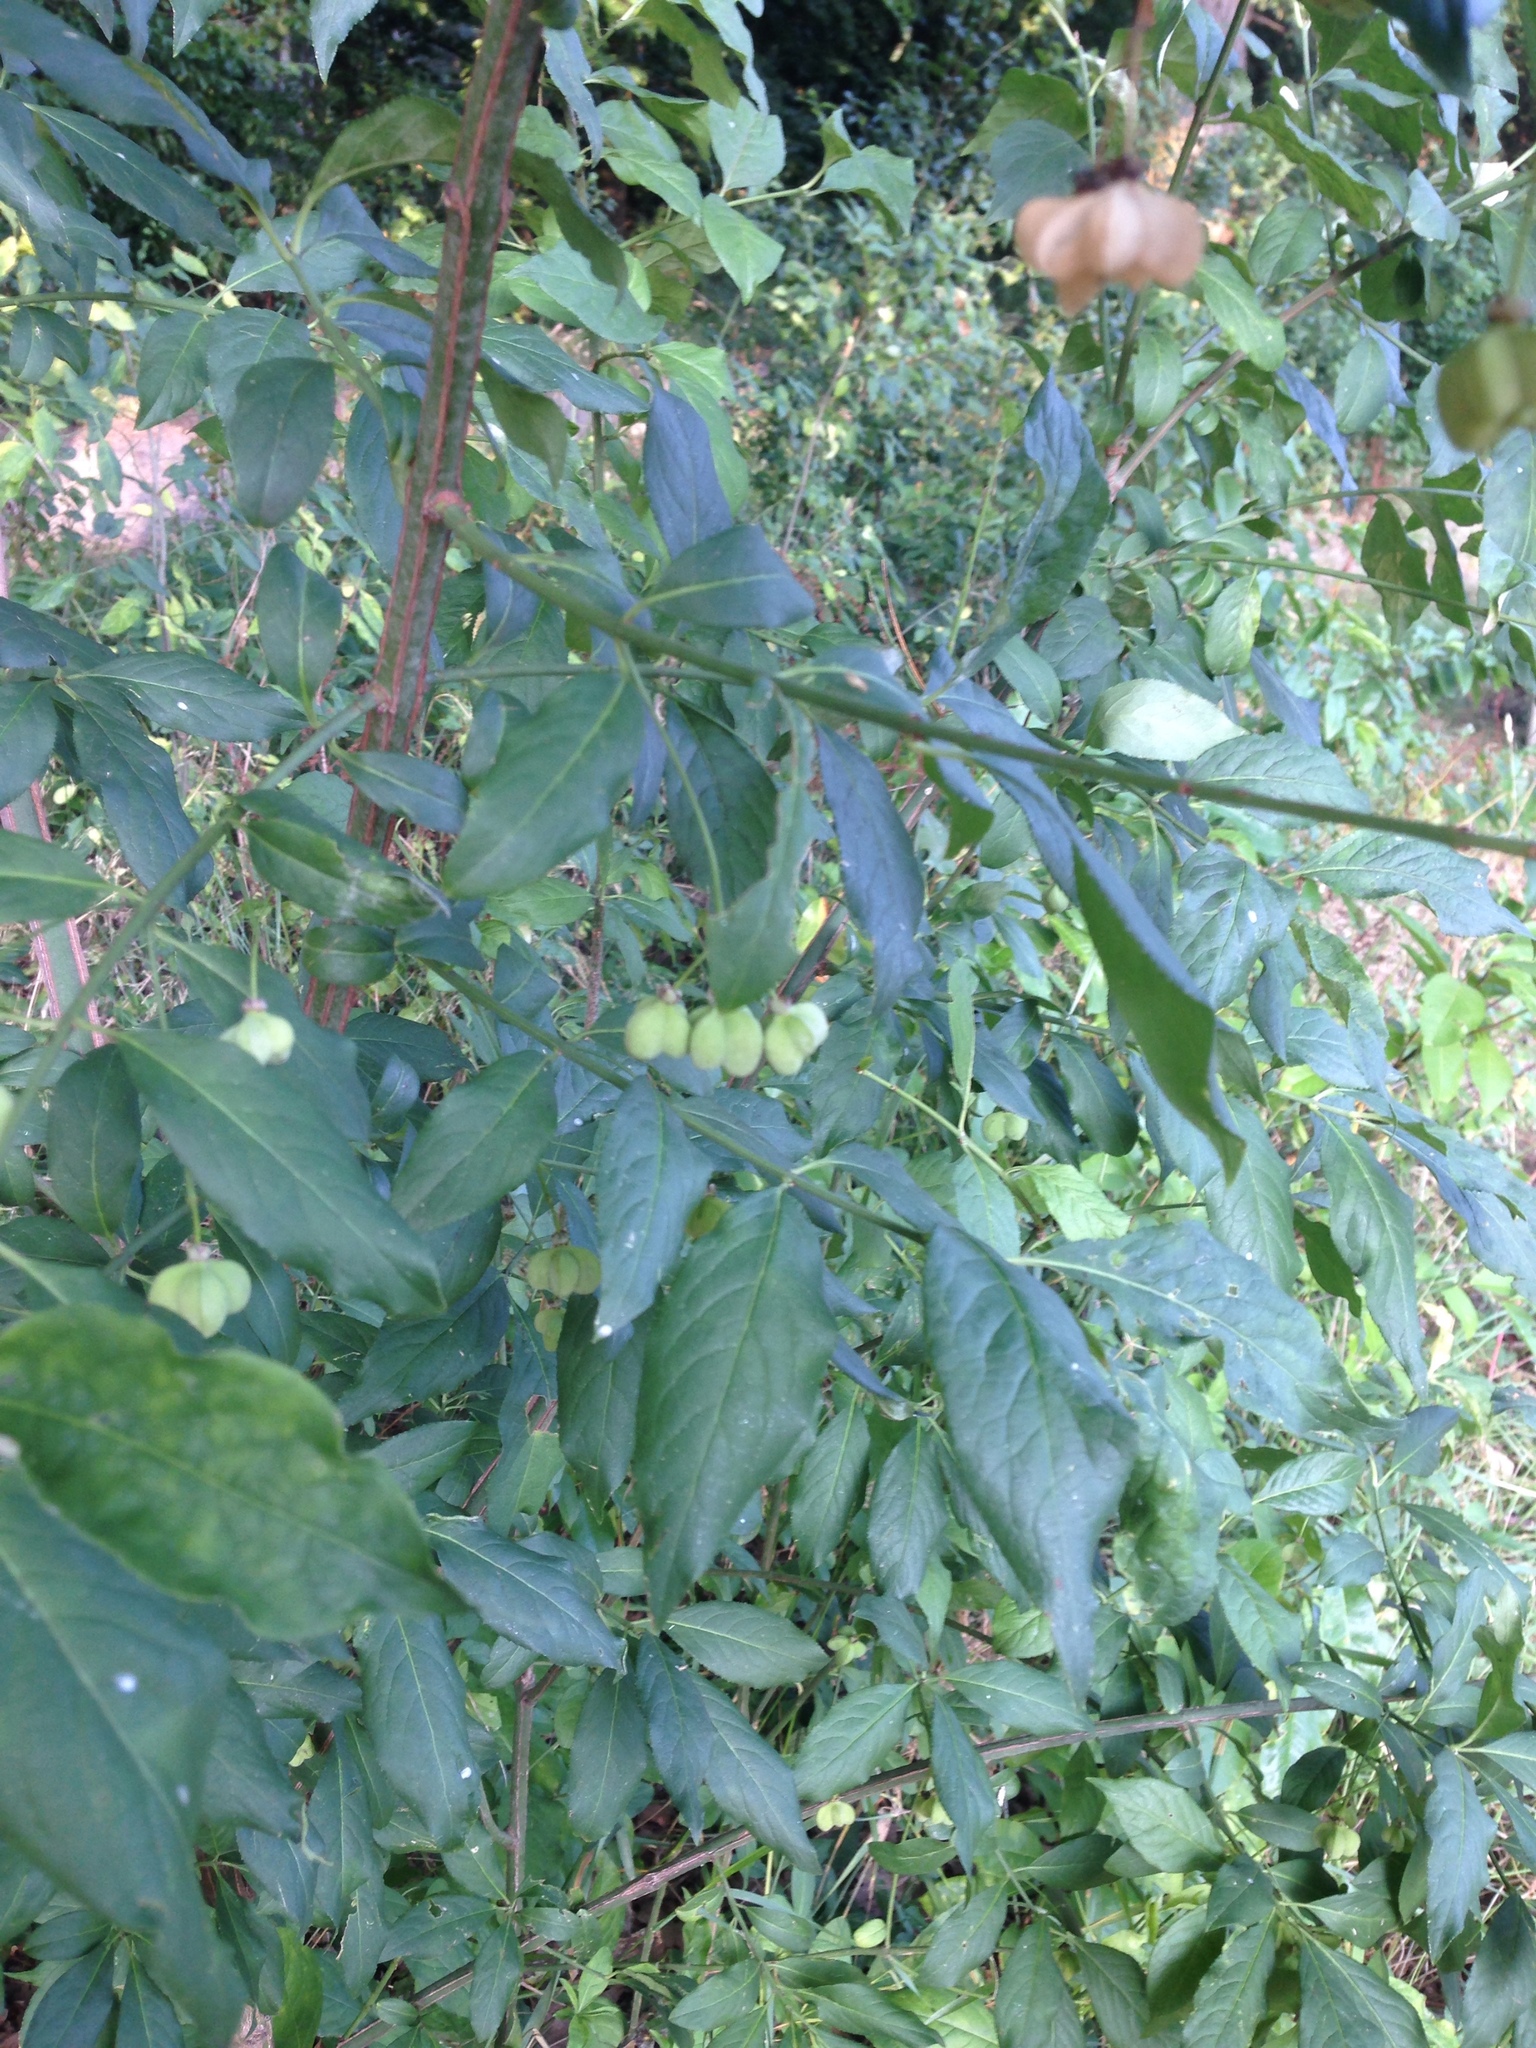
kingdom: Plantae
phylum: Tracheophyta
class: Magnoliopsida
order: Celastrales
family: Celastraceae
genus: Euonymus
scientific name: Euonymus europaeus
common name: Spindle
